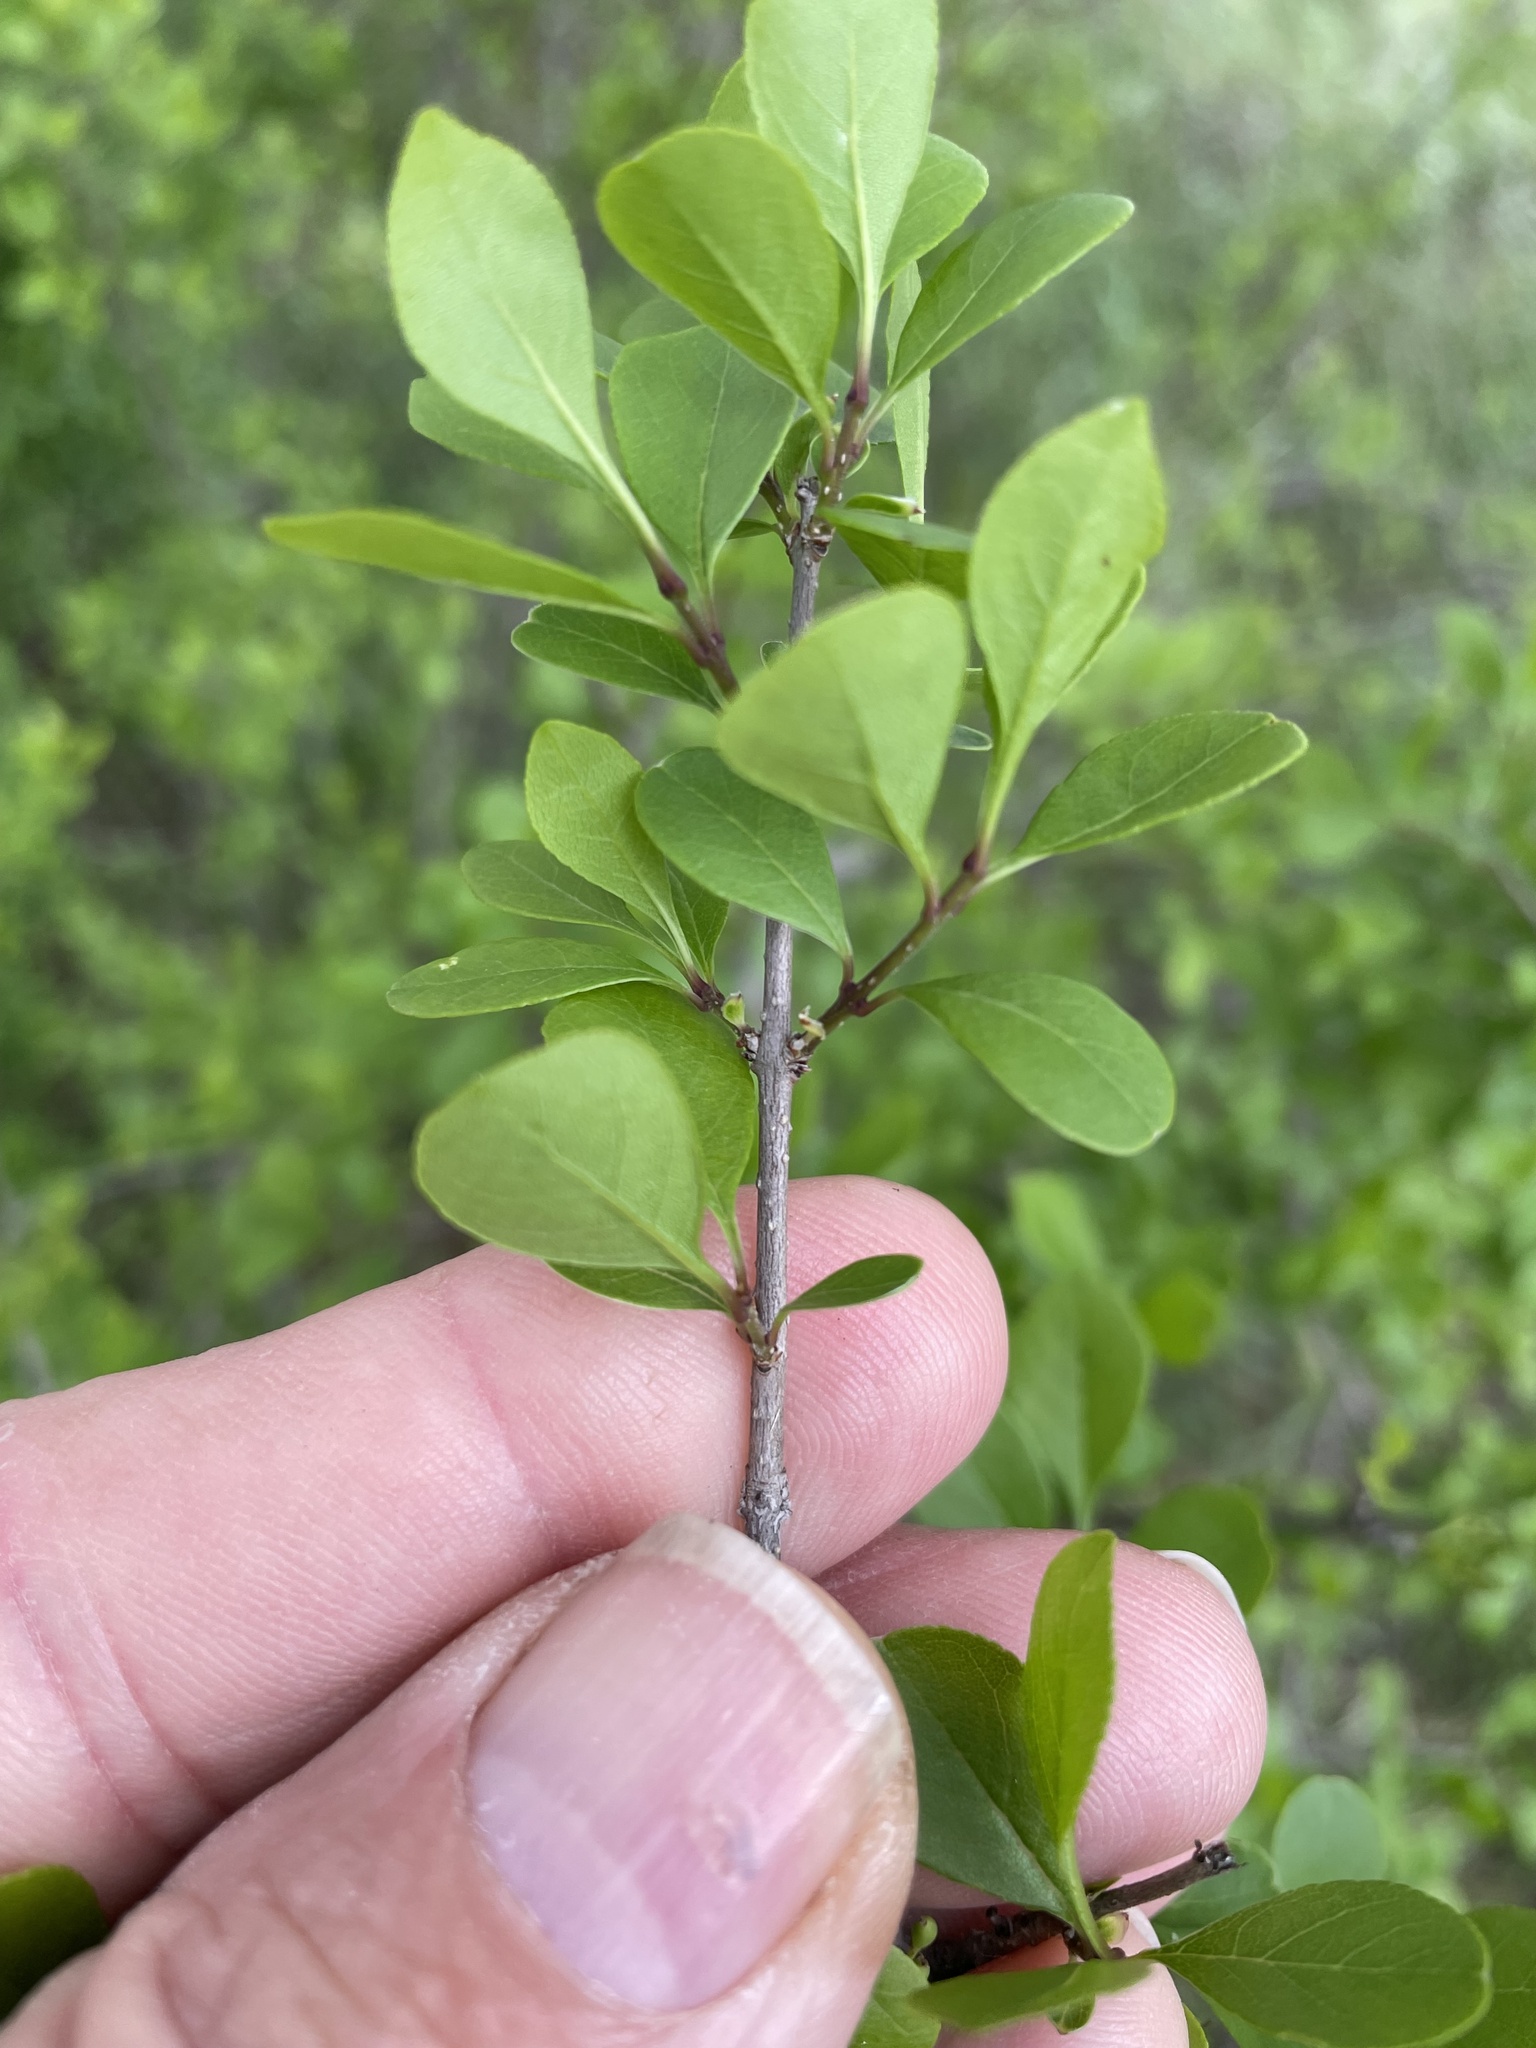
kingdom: Plantae
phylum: Tracheophyta
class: Magnoliopsida
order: Lamiales
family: Oleaceae
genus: Forestiera
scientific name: Forestiera pubescens
